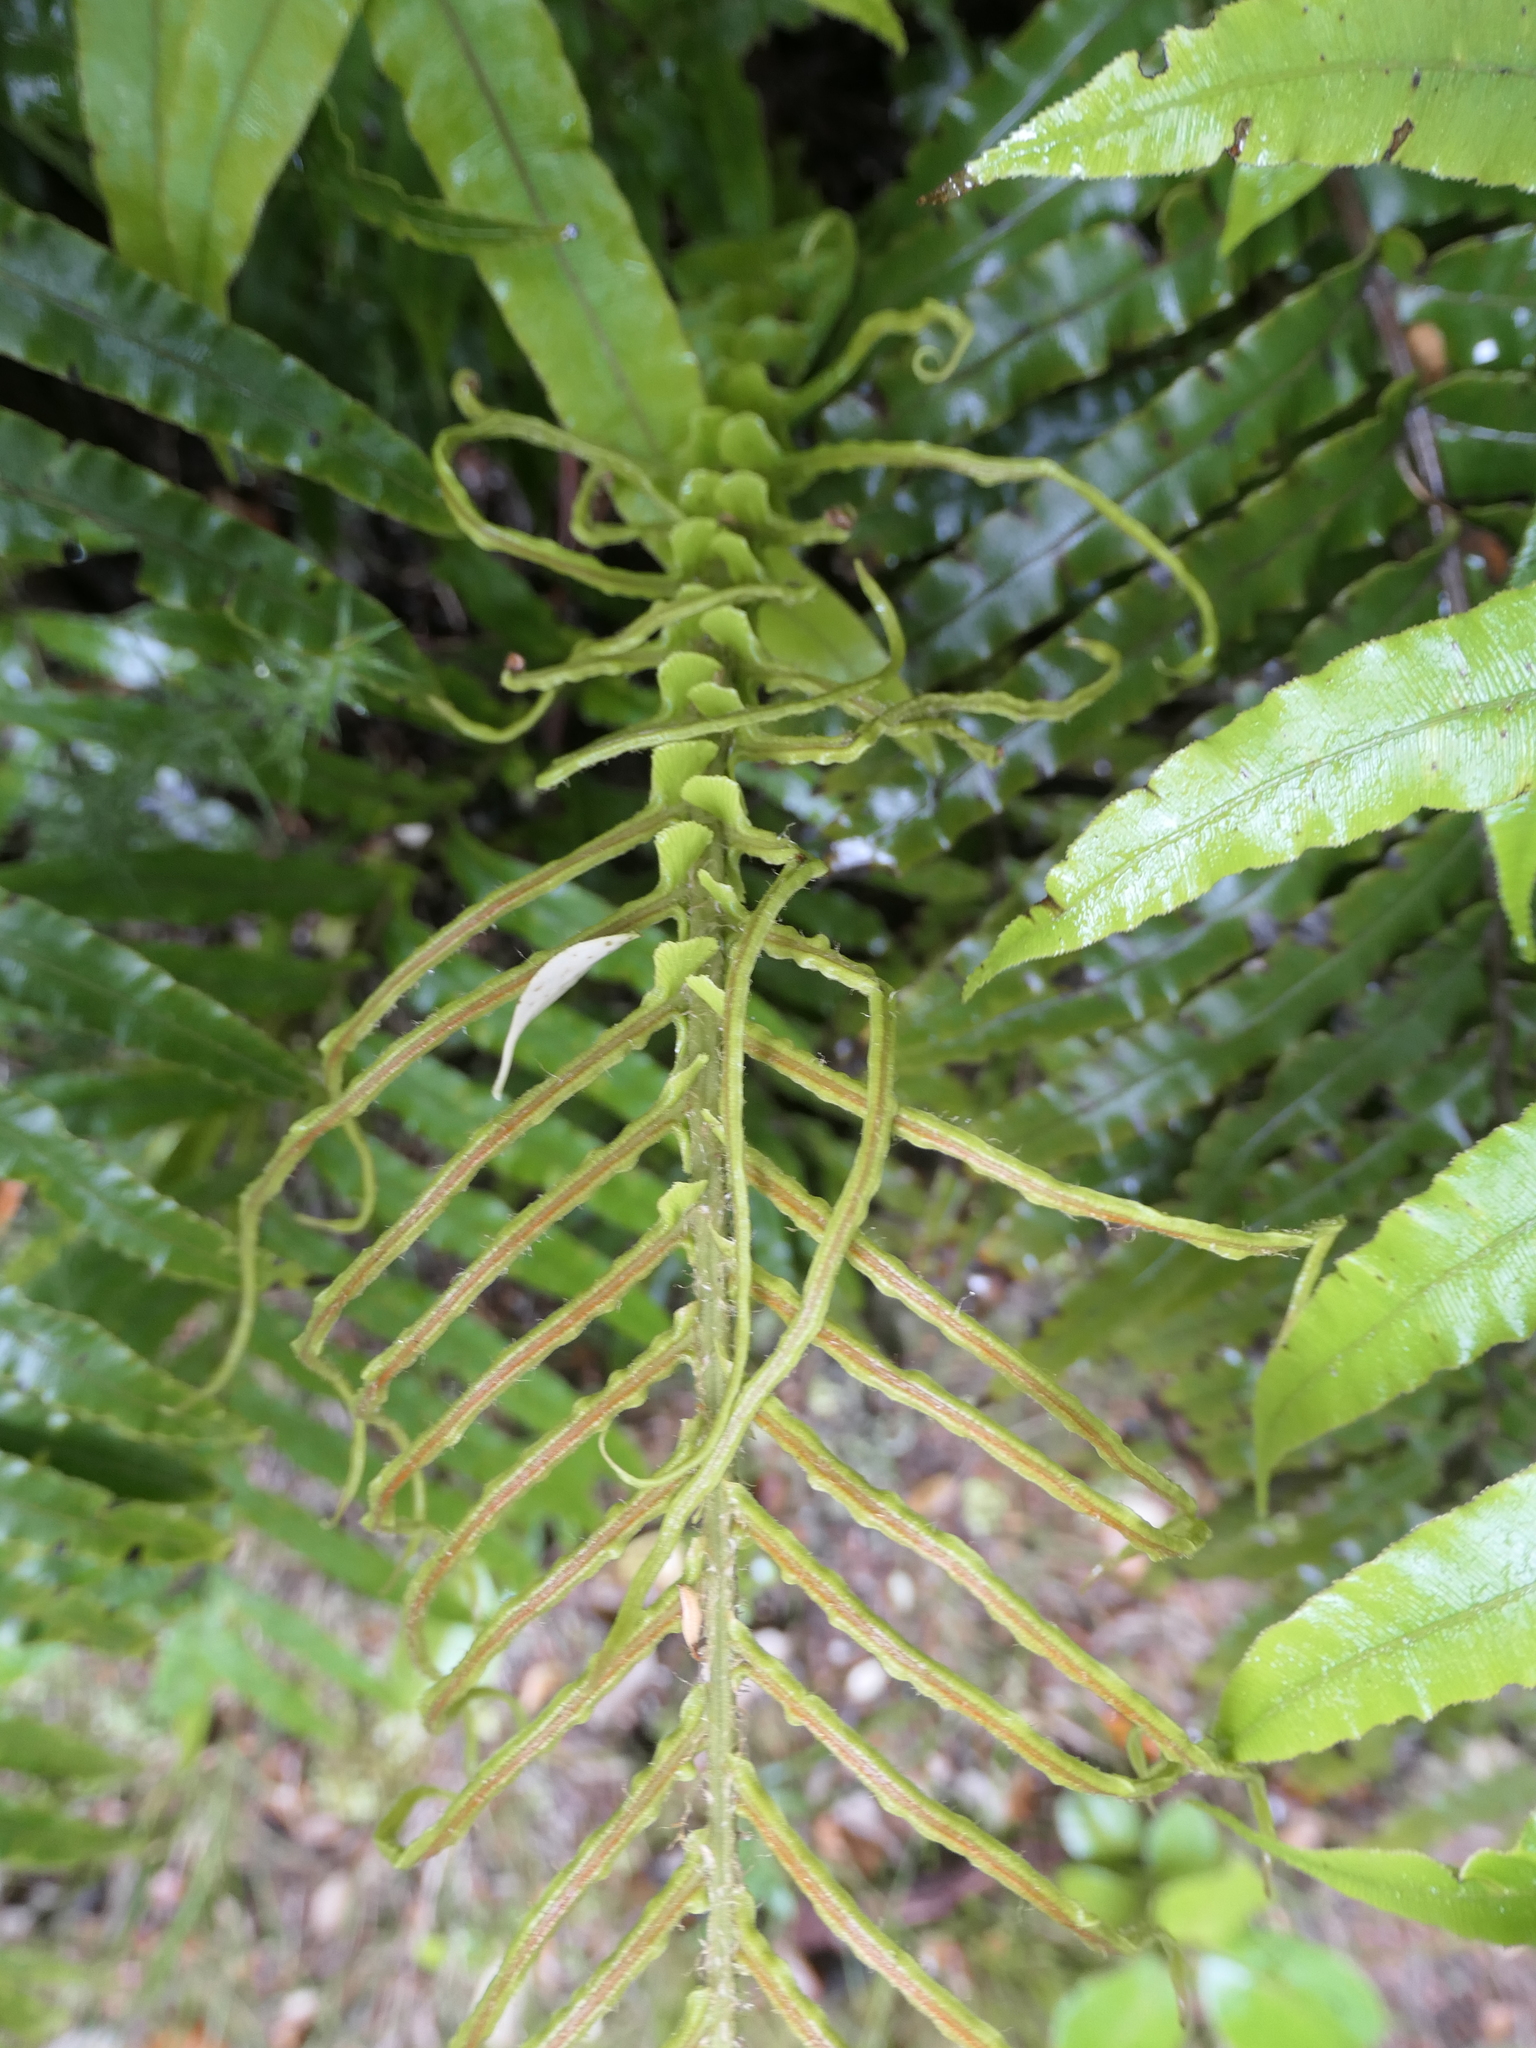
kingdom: Plantae
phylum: Tracheophyta
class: Polypodiopsida
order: Polypodiales
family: Blechnaceae
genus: Parablechnum
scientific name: Parablechnum novae-zelandiae
